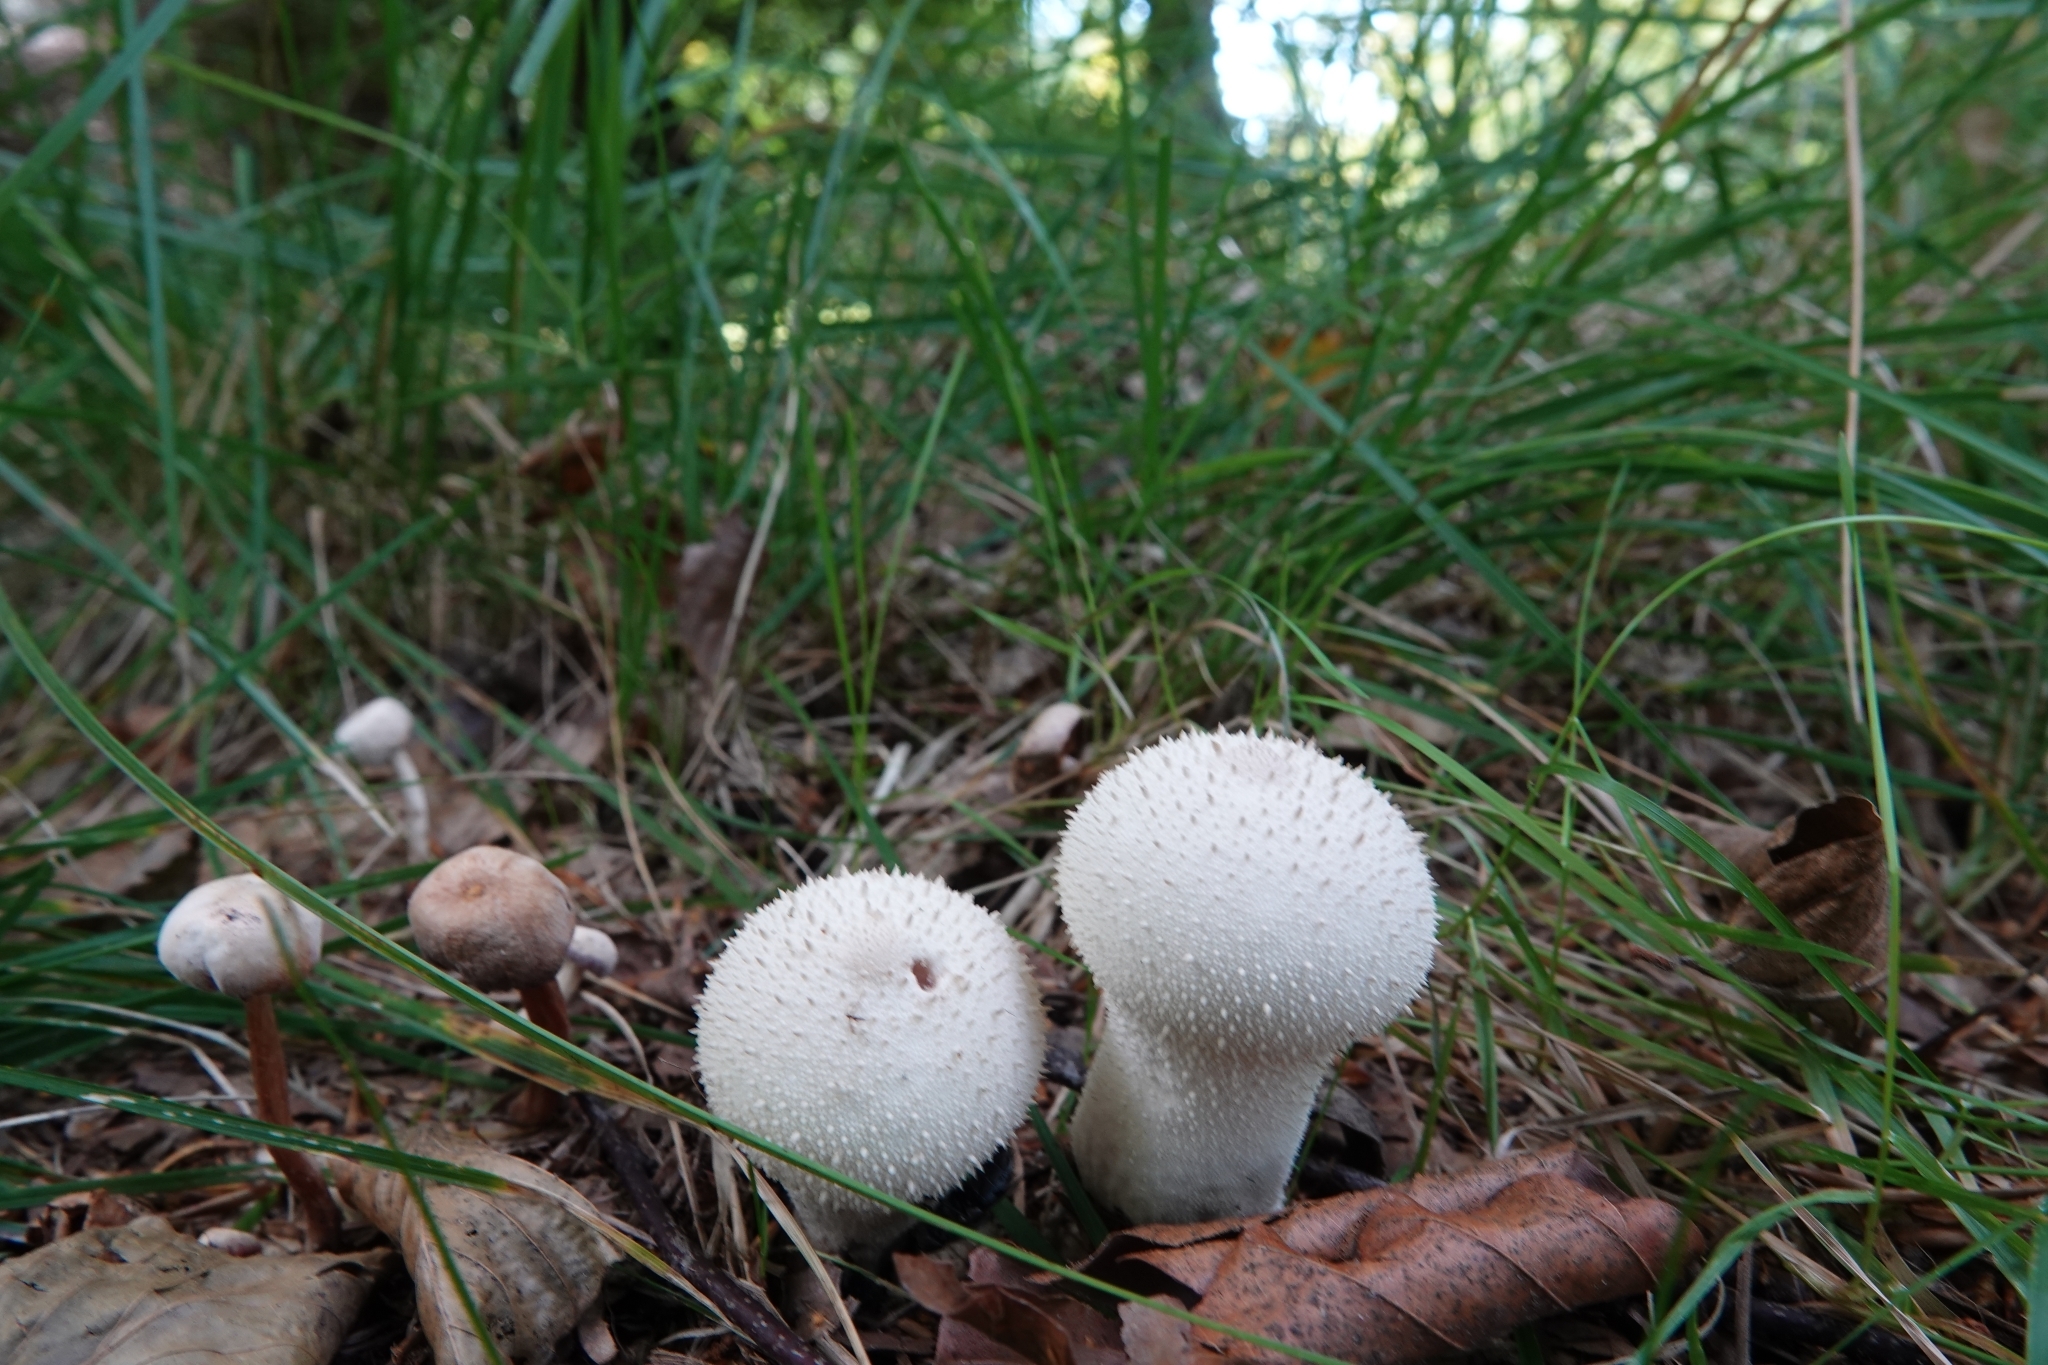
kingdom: Fungi
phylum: Basidiomycota
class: Agaricomycetes
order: Agaricales
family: Lycoperdaceae
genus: Lycoperdon
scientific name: Lycoperdon perlatum
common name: Common puffball
